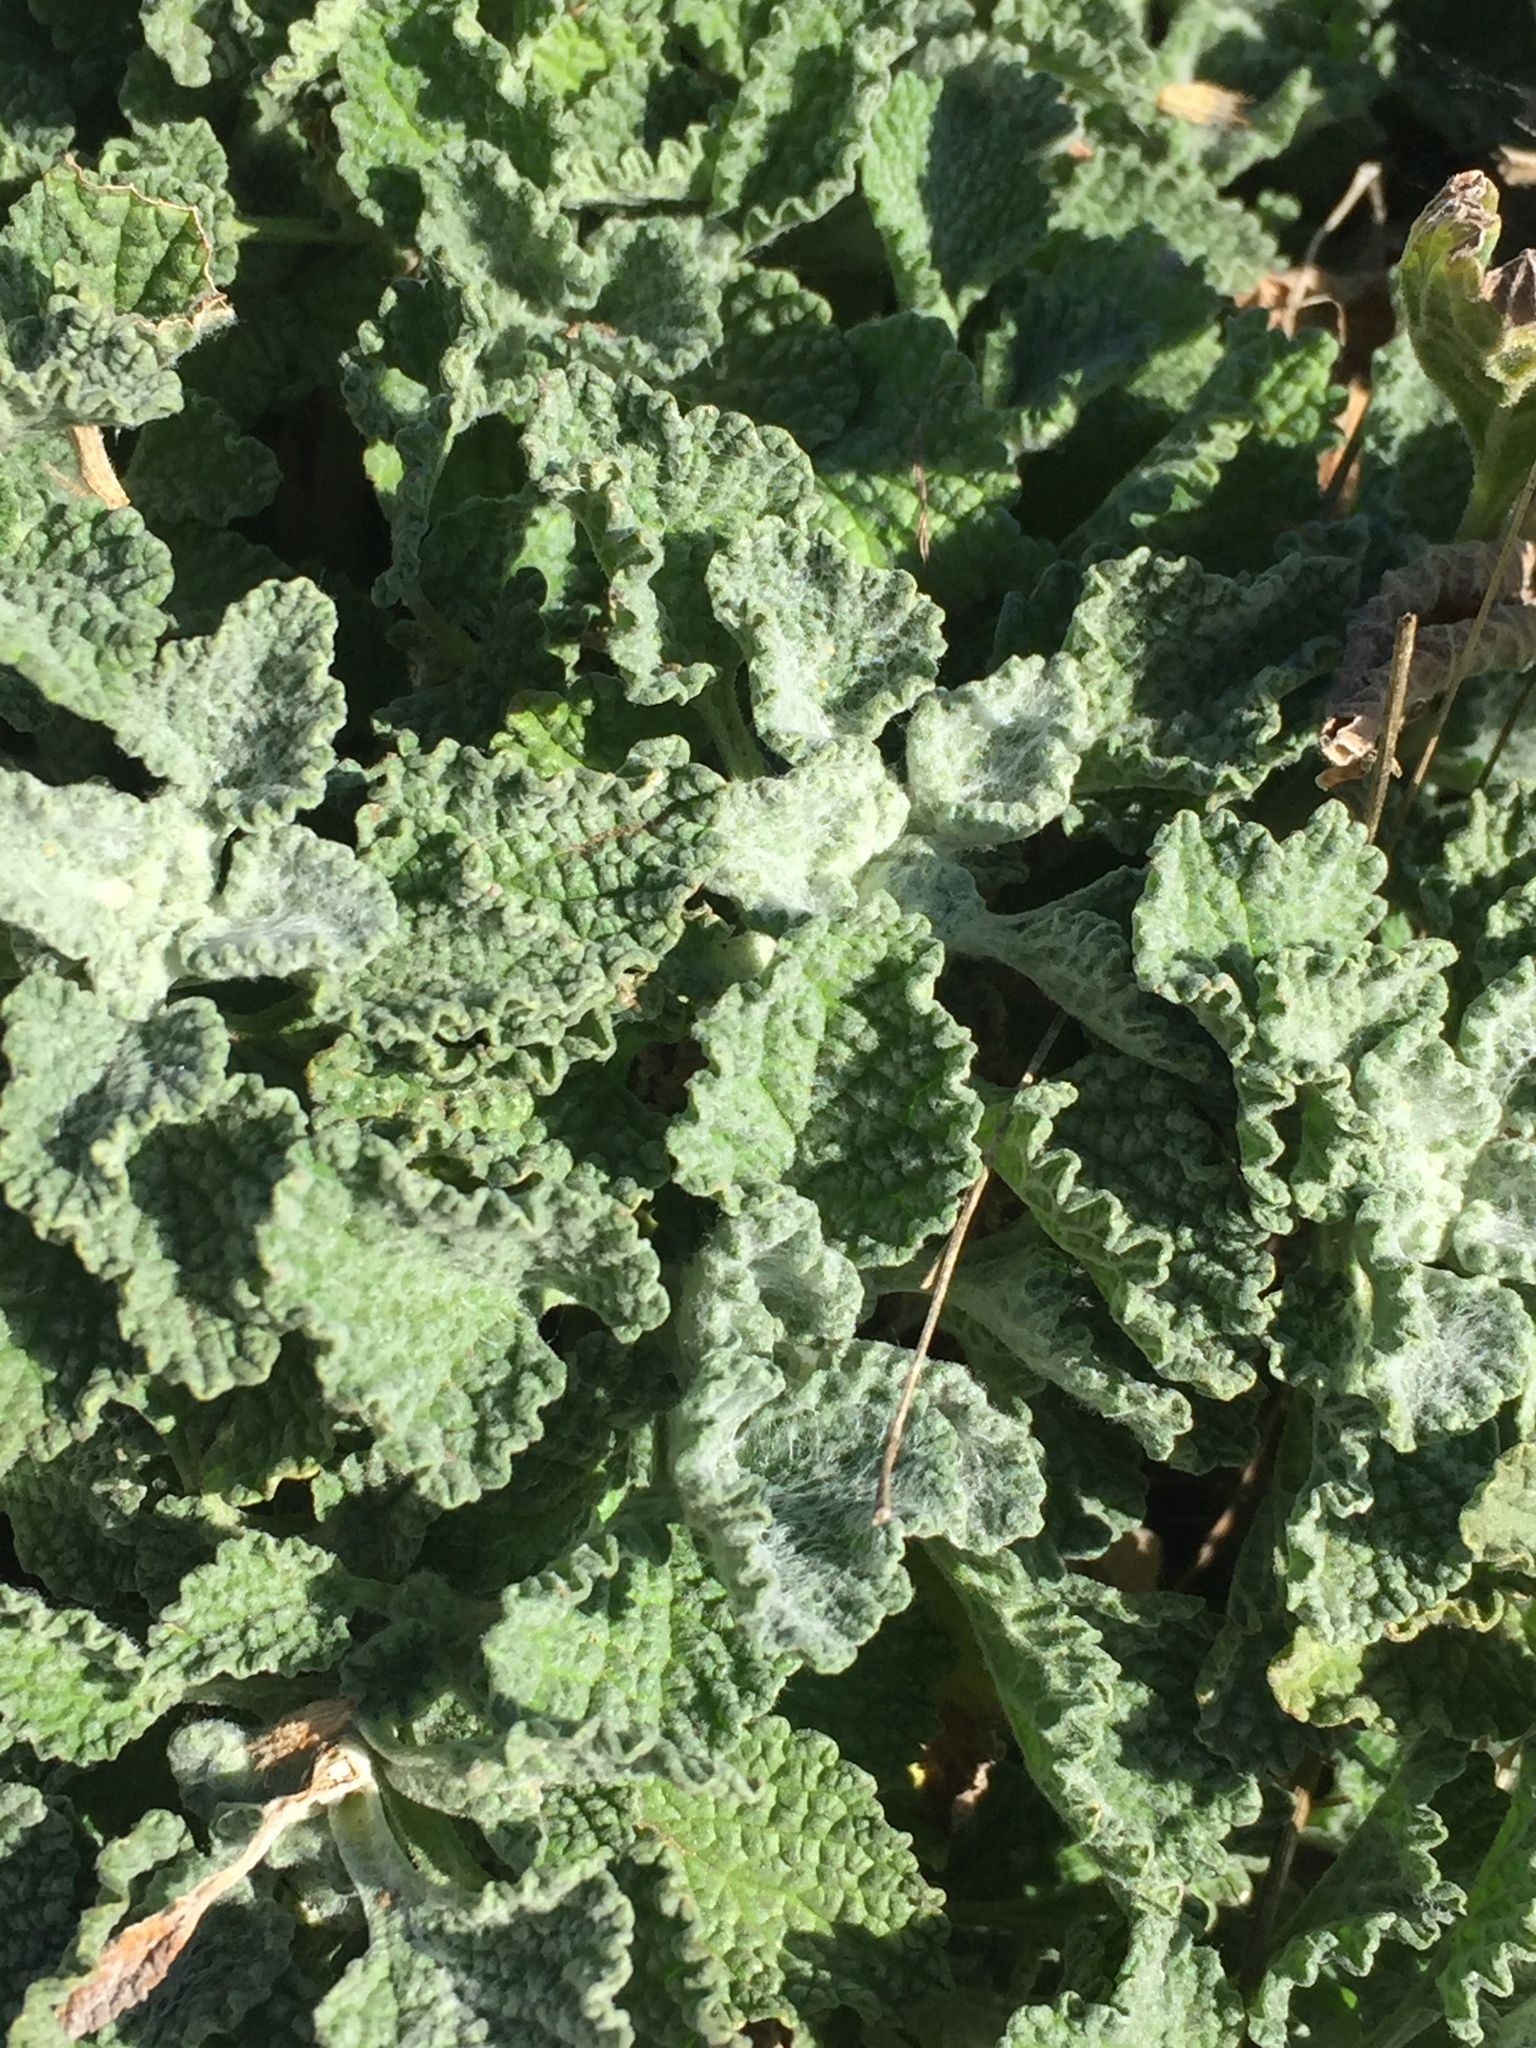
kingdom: Plantae
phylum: Tracheophyta
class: Magnoliopsida
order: Lamiales
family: Lamiaceae
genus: Marrubium
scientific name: Marrubium vulgare
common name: Horehound
